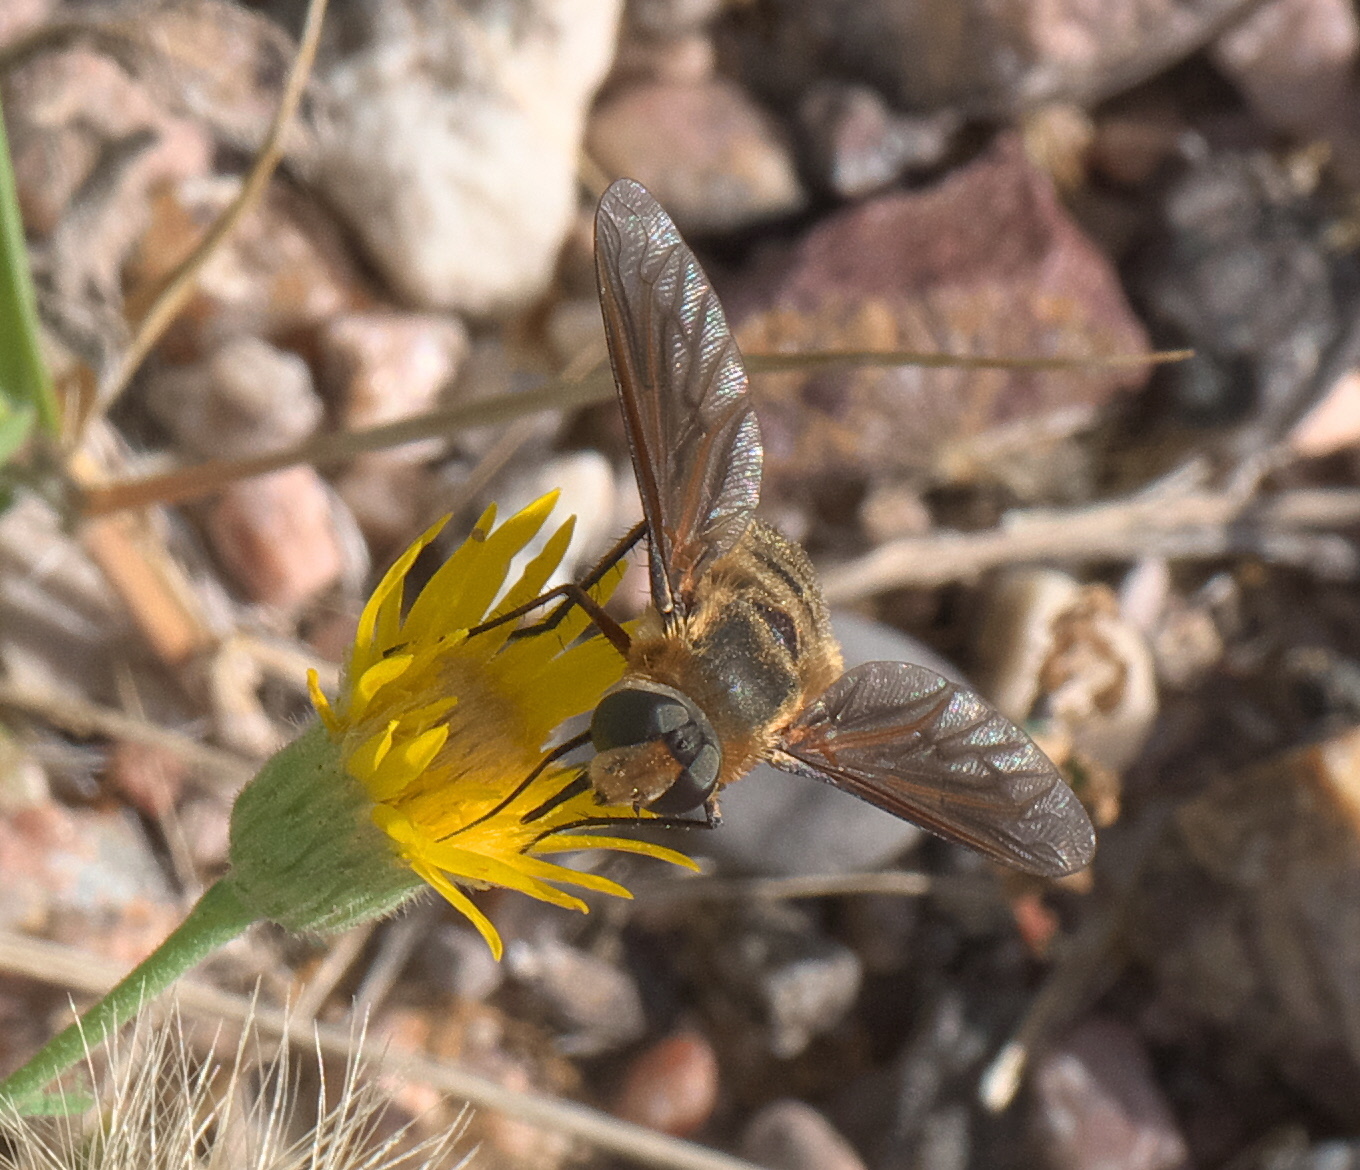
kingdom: Animalia
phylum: Arthropoda
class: Insecta
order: Diptera
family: Bombyliidae
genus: Poecilanthrax
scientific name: Poecilanthrax lucifer
